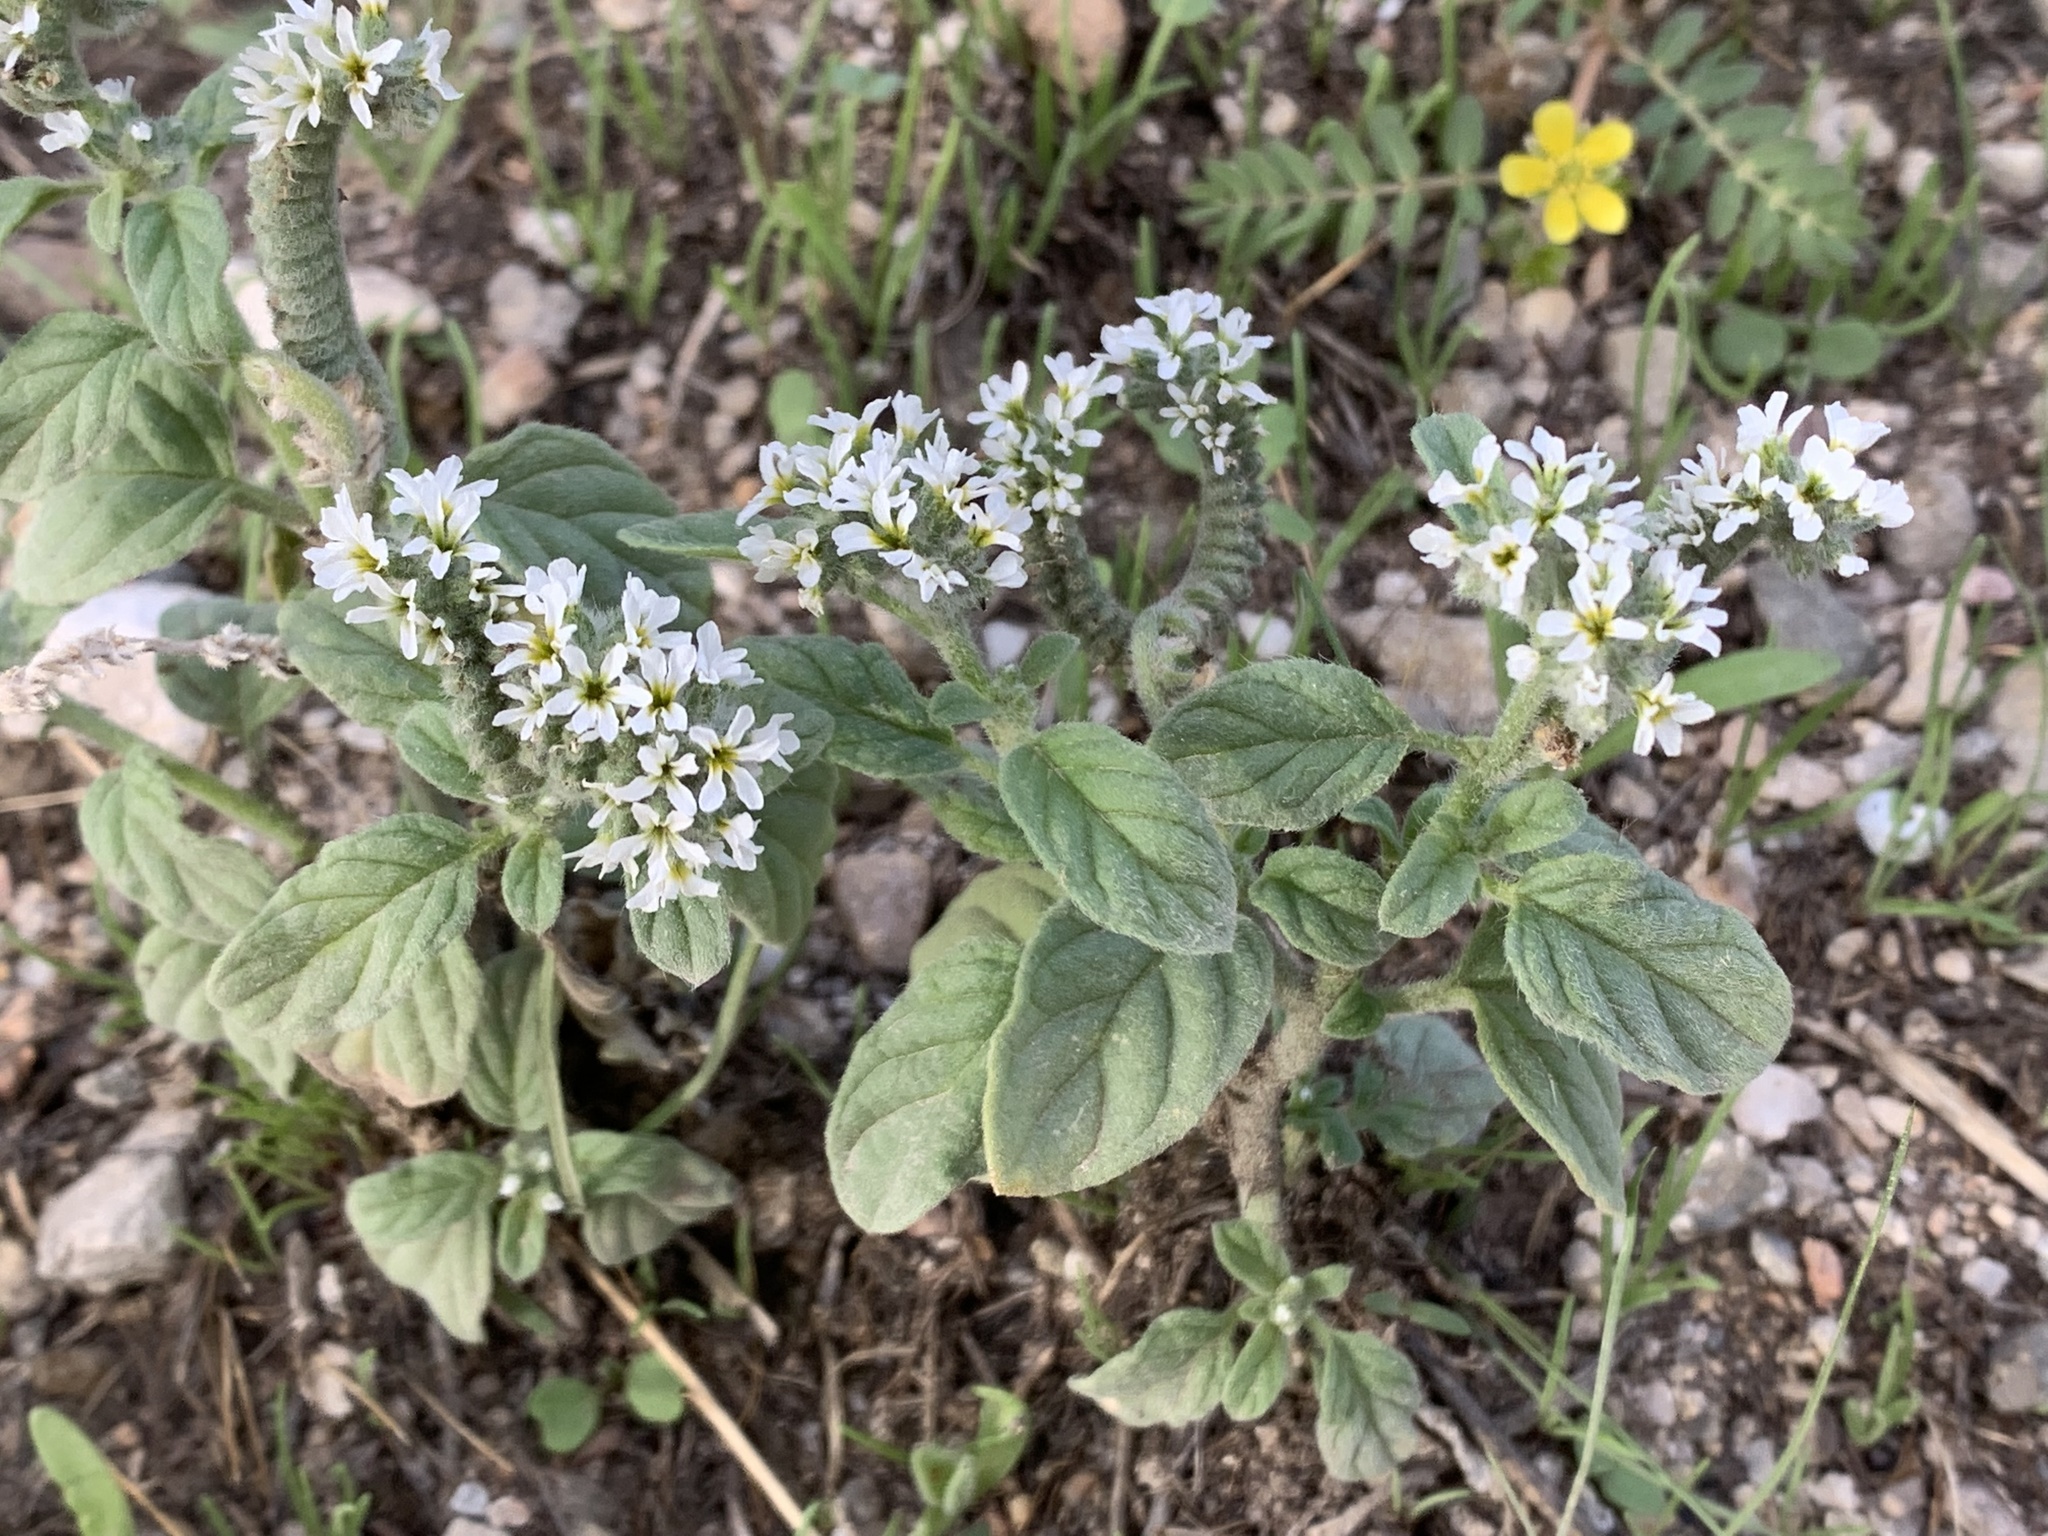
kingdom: Plantae
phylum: Tracheophyta
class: Magnoliopsida
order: Boraginales
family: Heliotropiaceae
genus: Heliotropium
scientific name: Heliotropium europaeum
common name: European heliotrope
